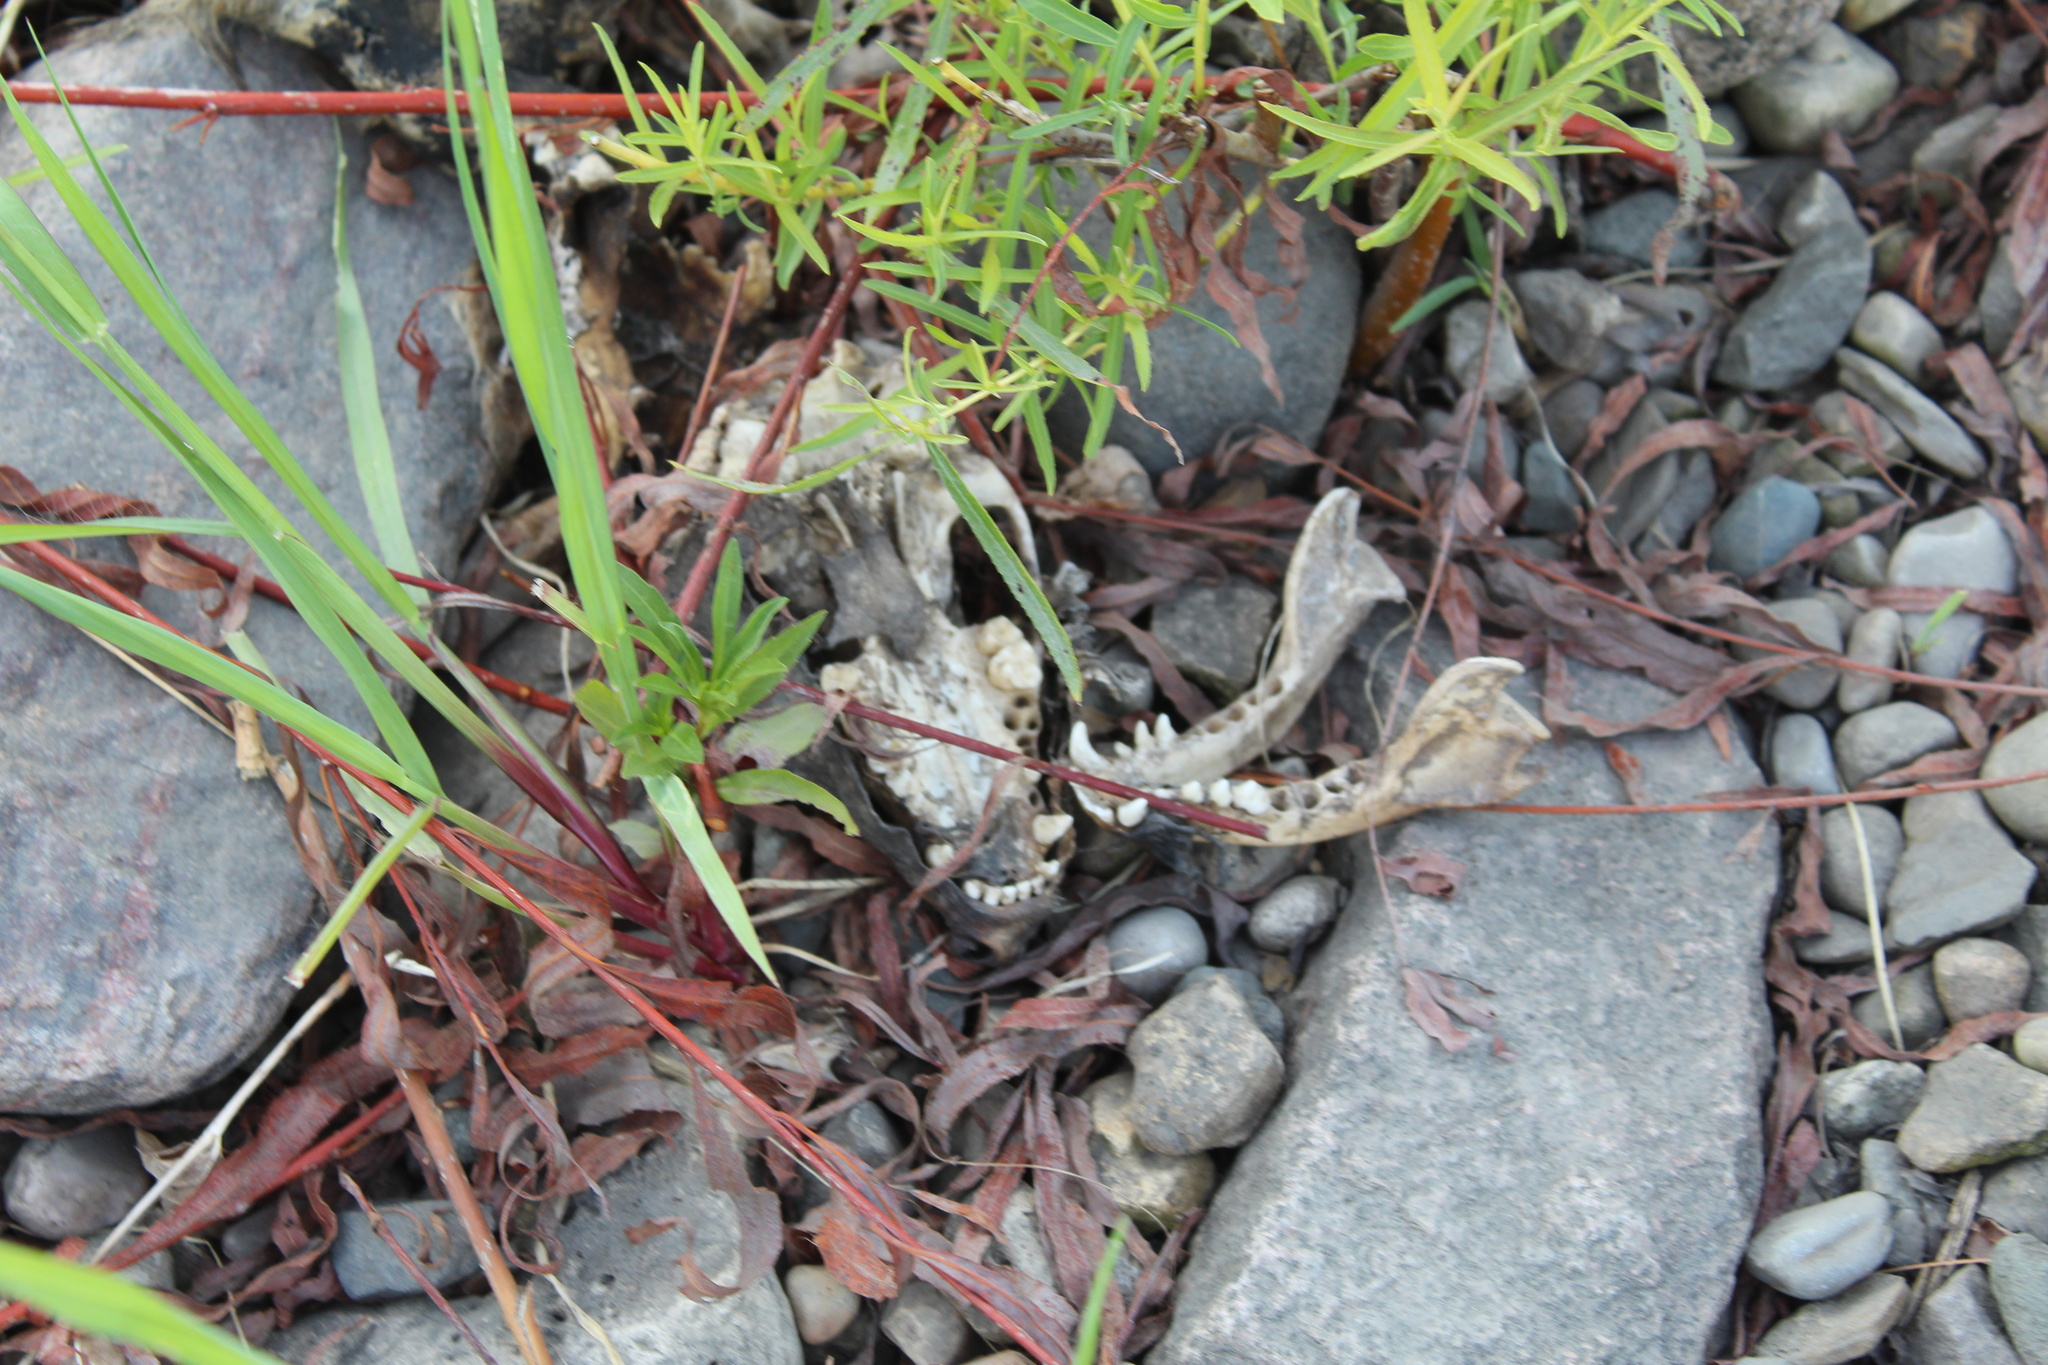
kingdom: Animalia
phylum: Chordata
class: Mammalia
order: Carnivora
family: Procyonidae
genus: Procyon
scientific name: Procyon lotor
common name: Raccoon
